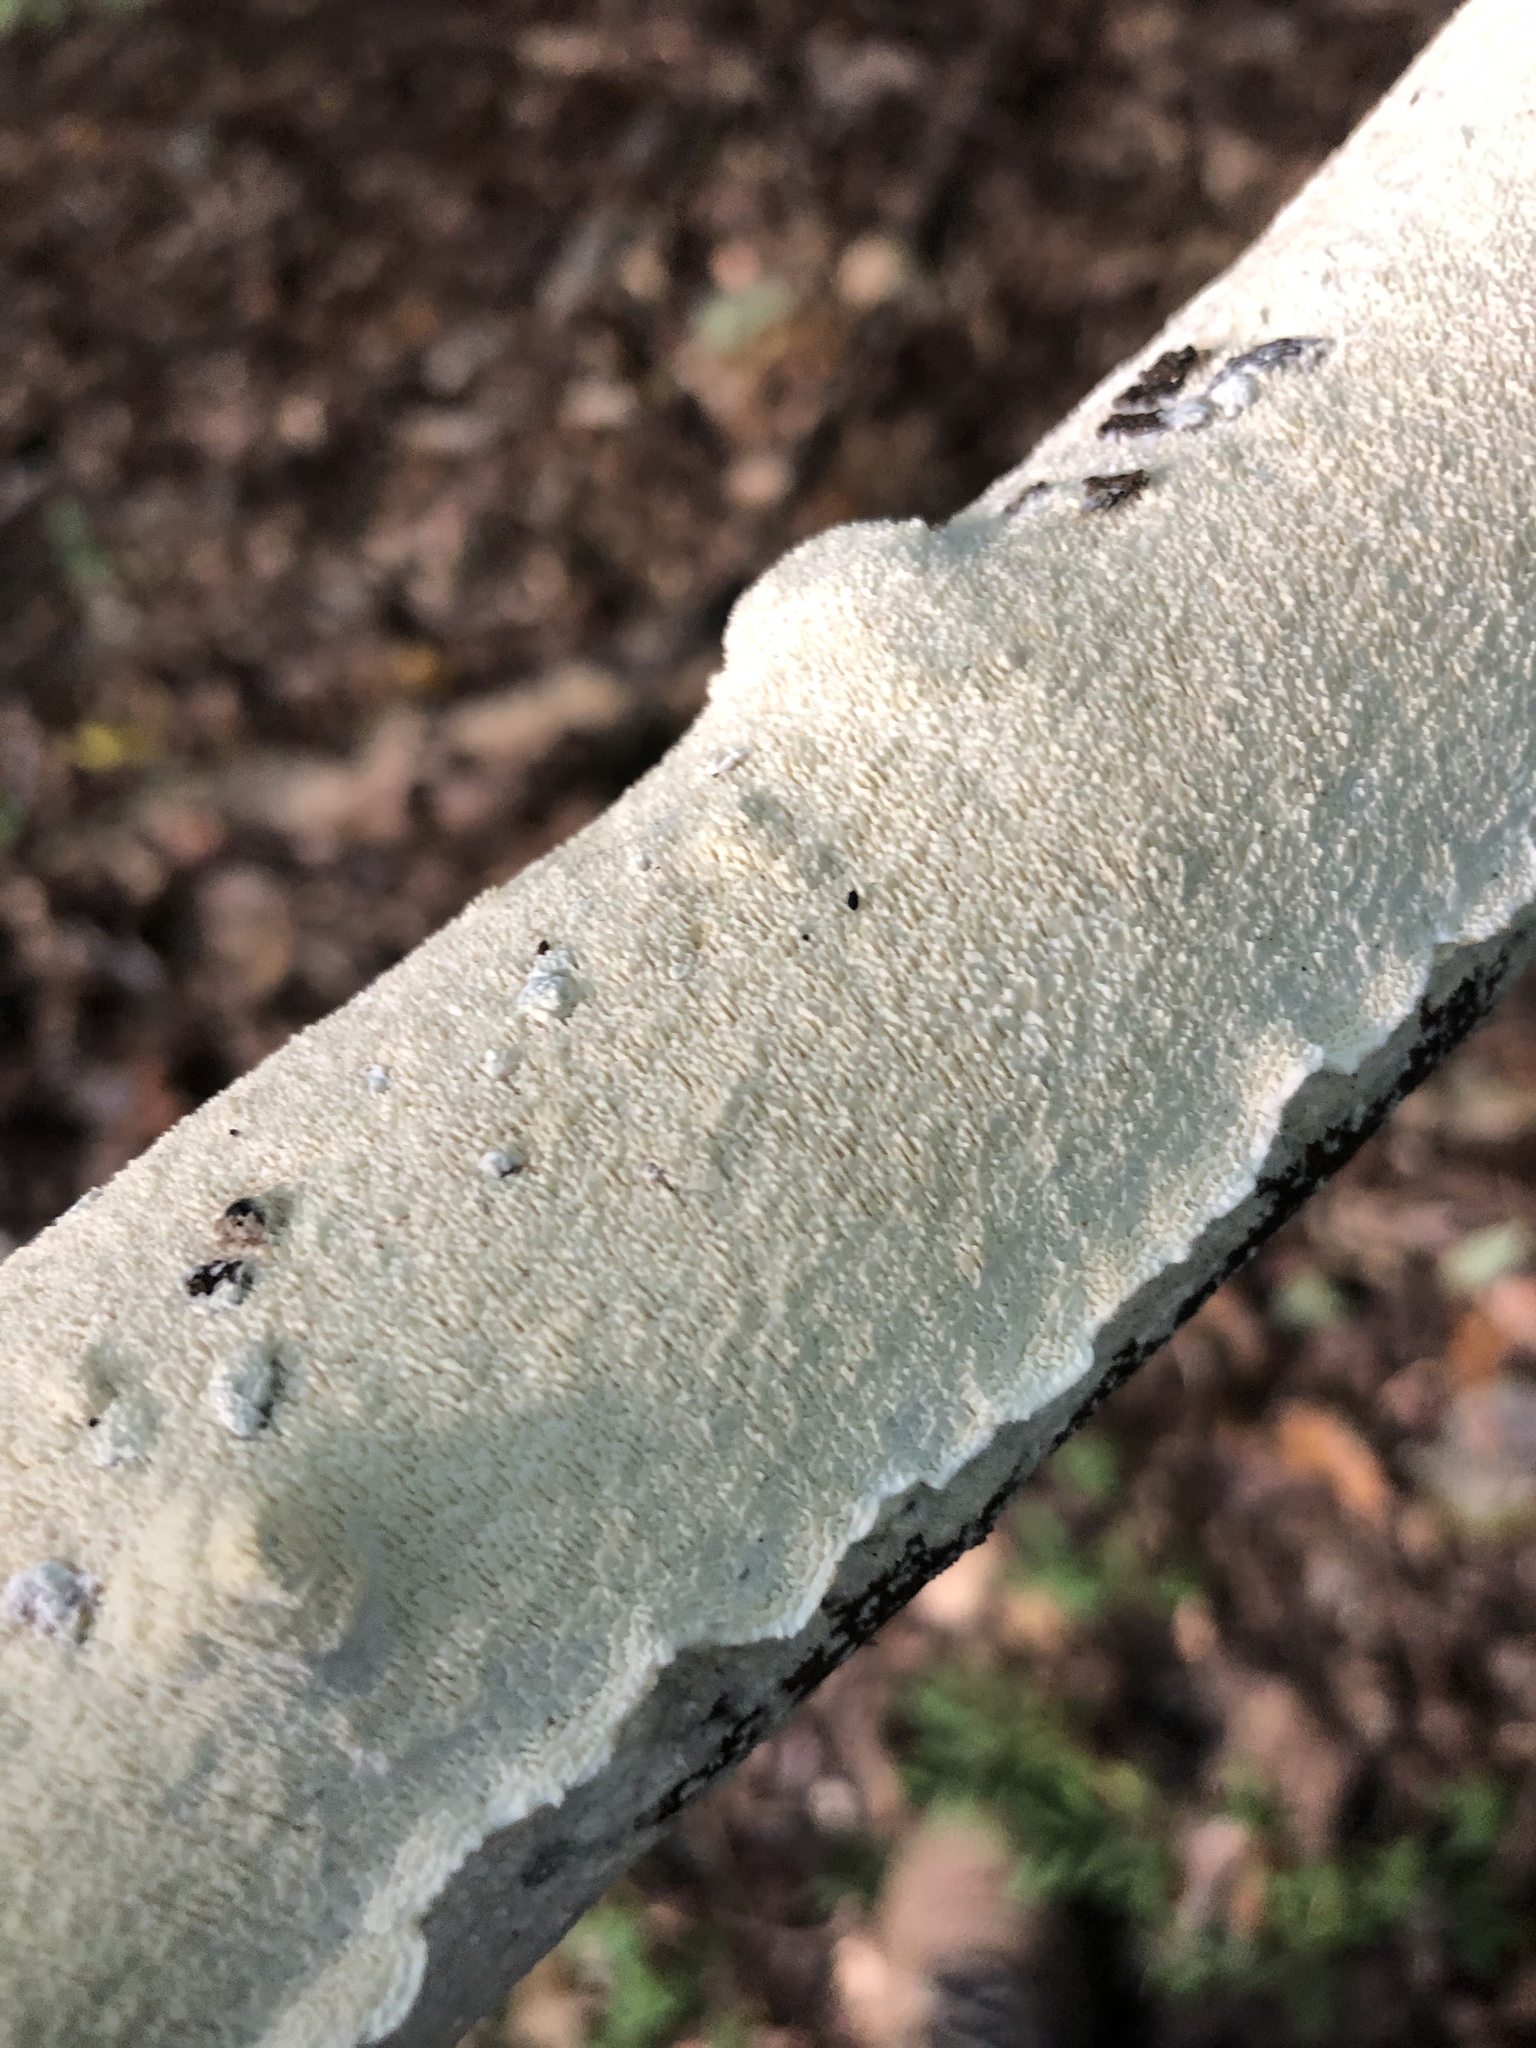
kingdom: Fungi
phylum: Basidiomycota
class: Agaricomycetes
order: Polyporales
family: Irpicaceae
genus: Irpex
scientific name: Irpex lacteus
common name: Milk-white toothed polypore
